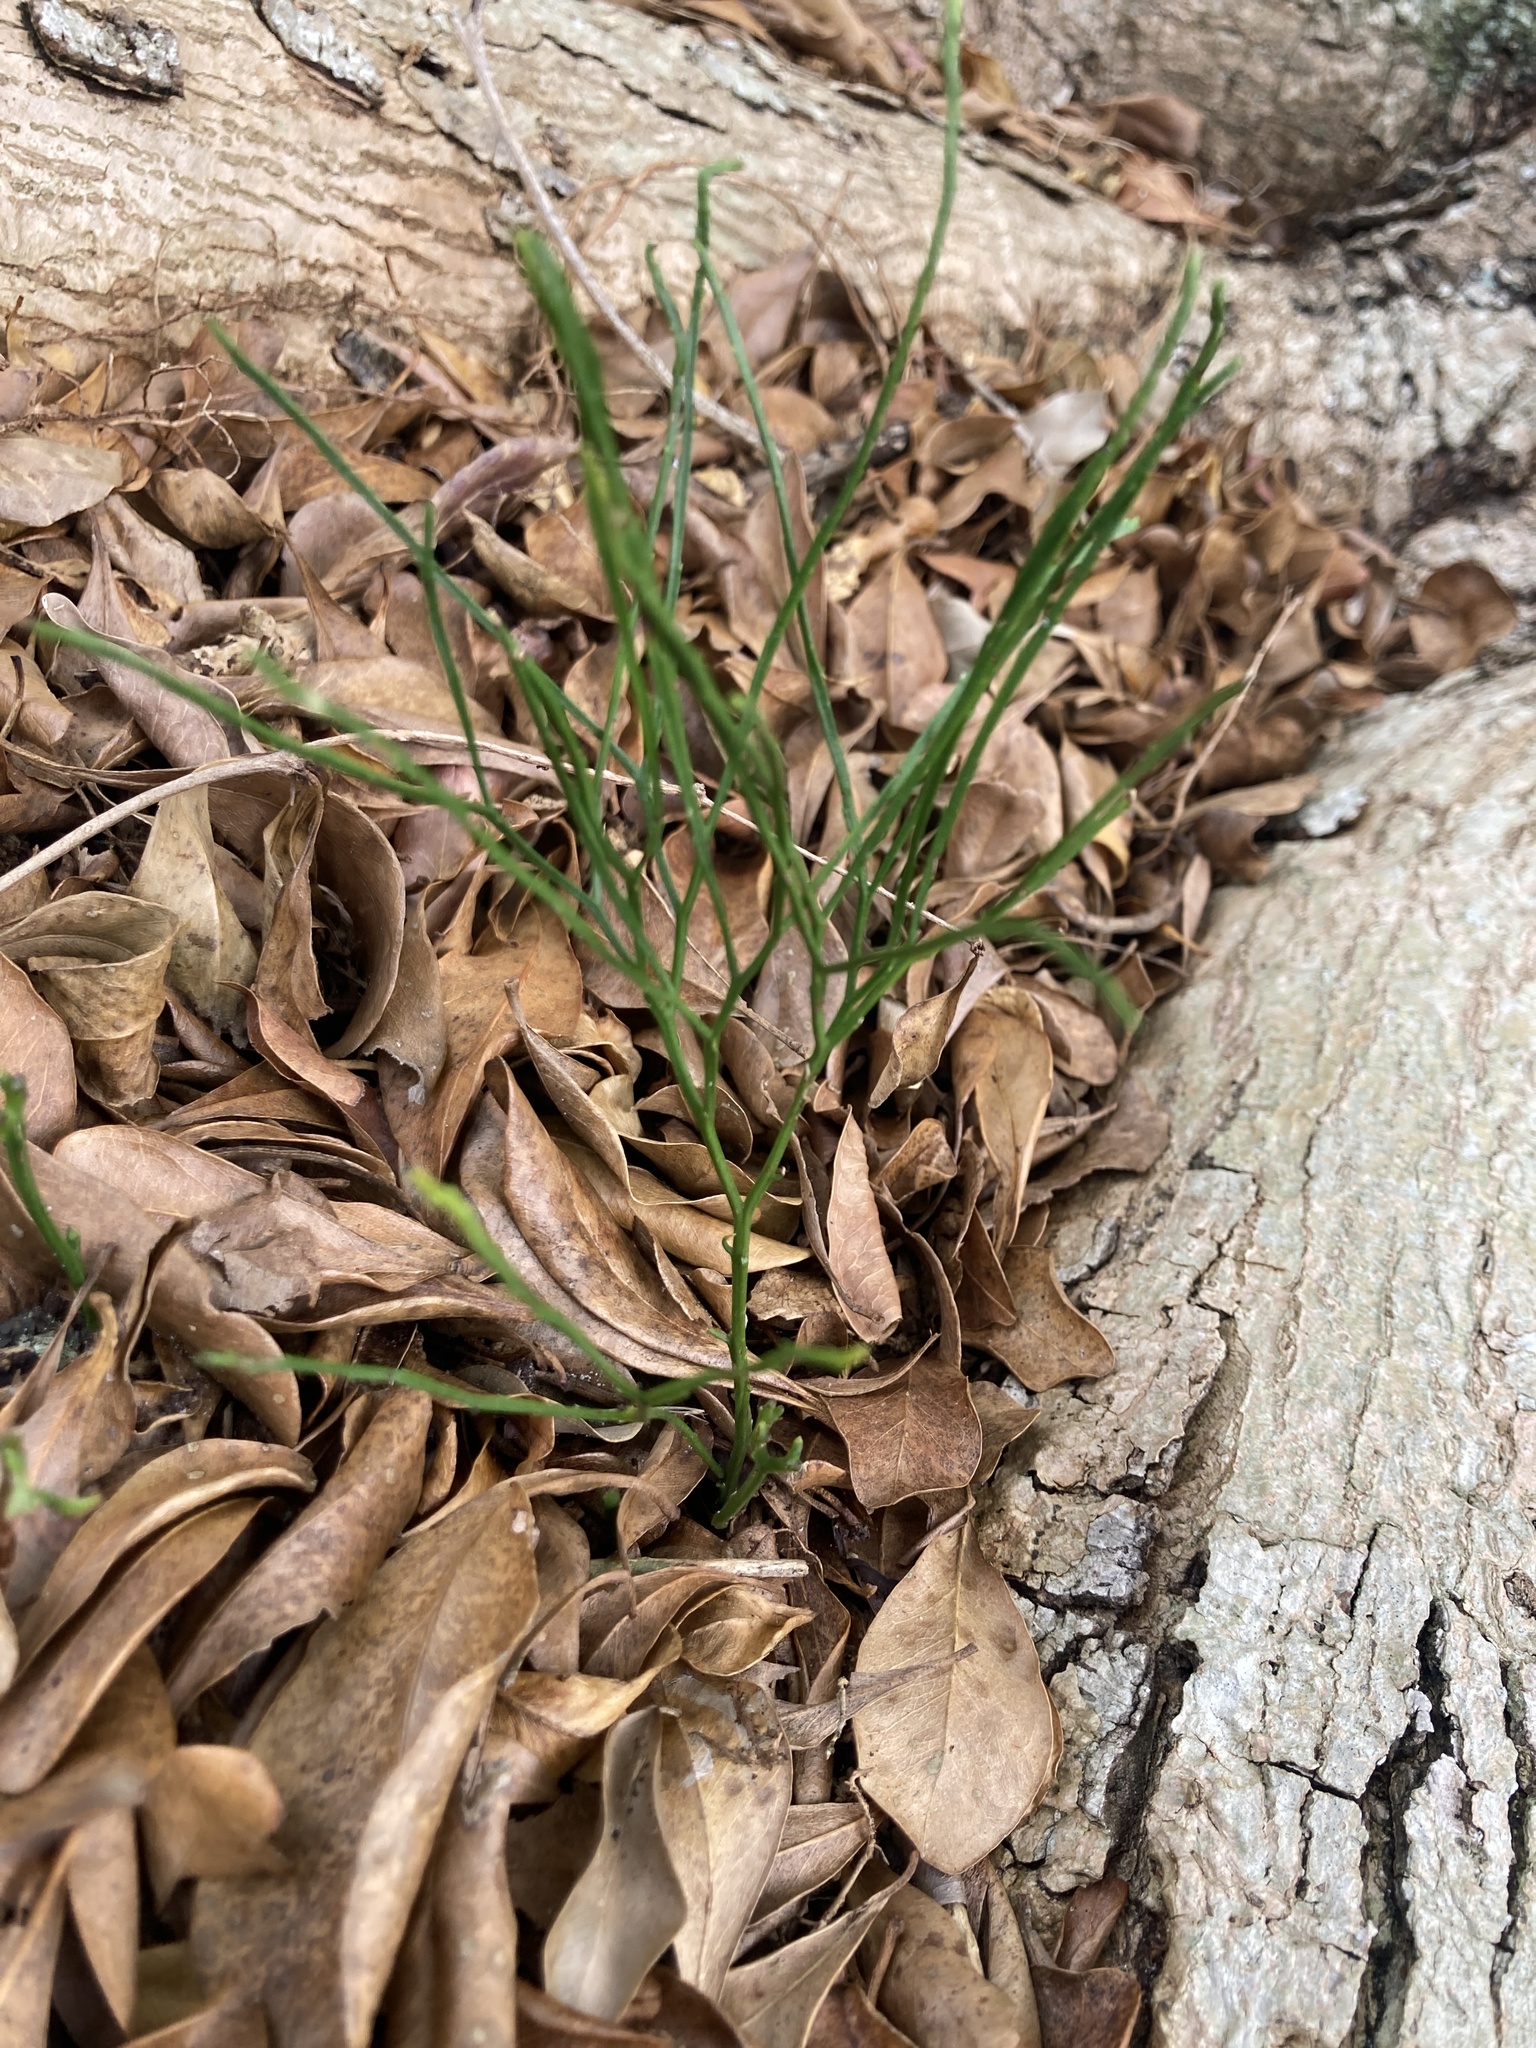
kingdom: Plantae
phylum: Tracheophyta
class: Polypodiopsida
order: Psilotales
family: Psilotaceae
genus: Psilotum
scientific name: Psilotum nudum
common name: Skeleton fork fern
